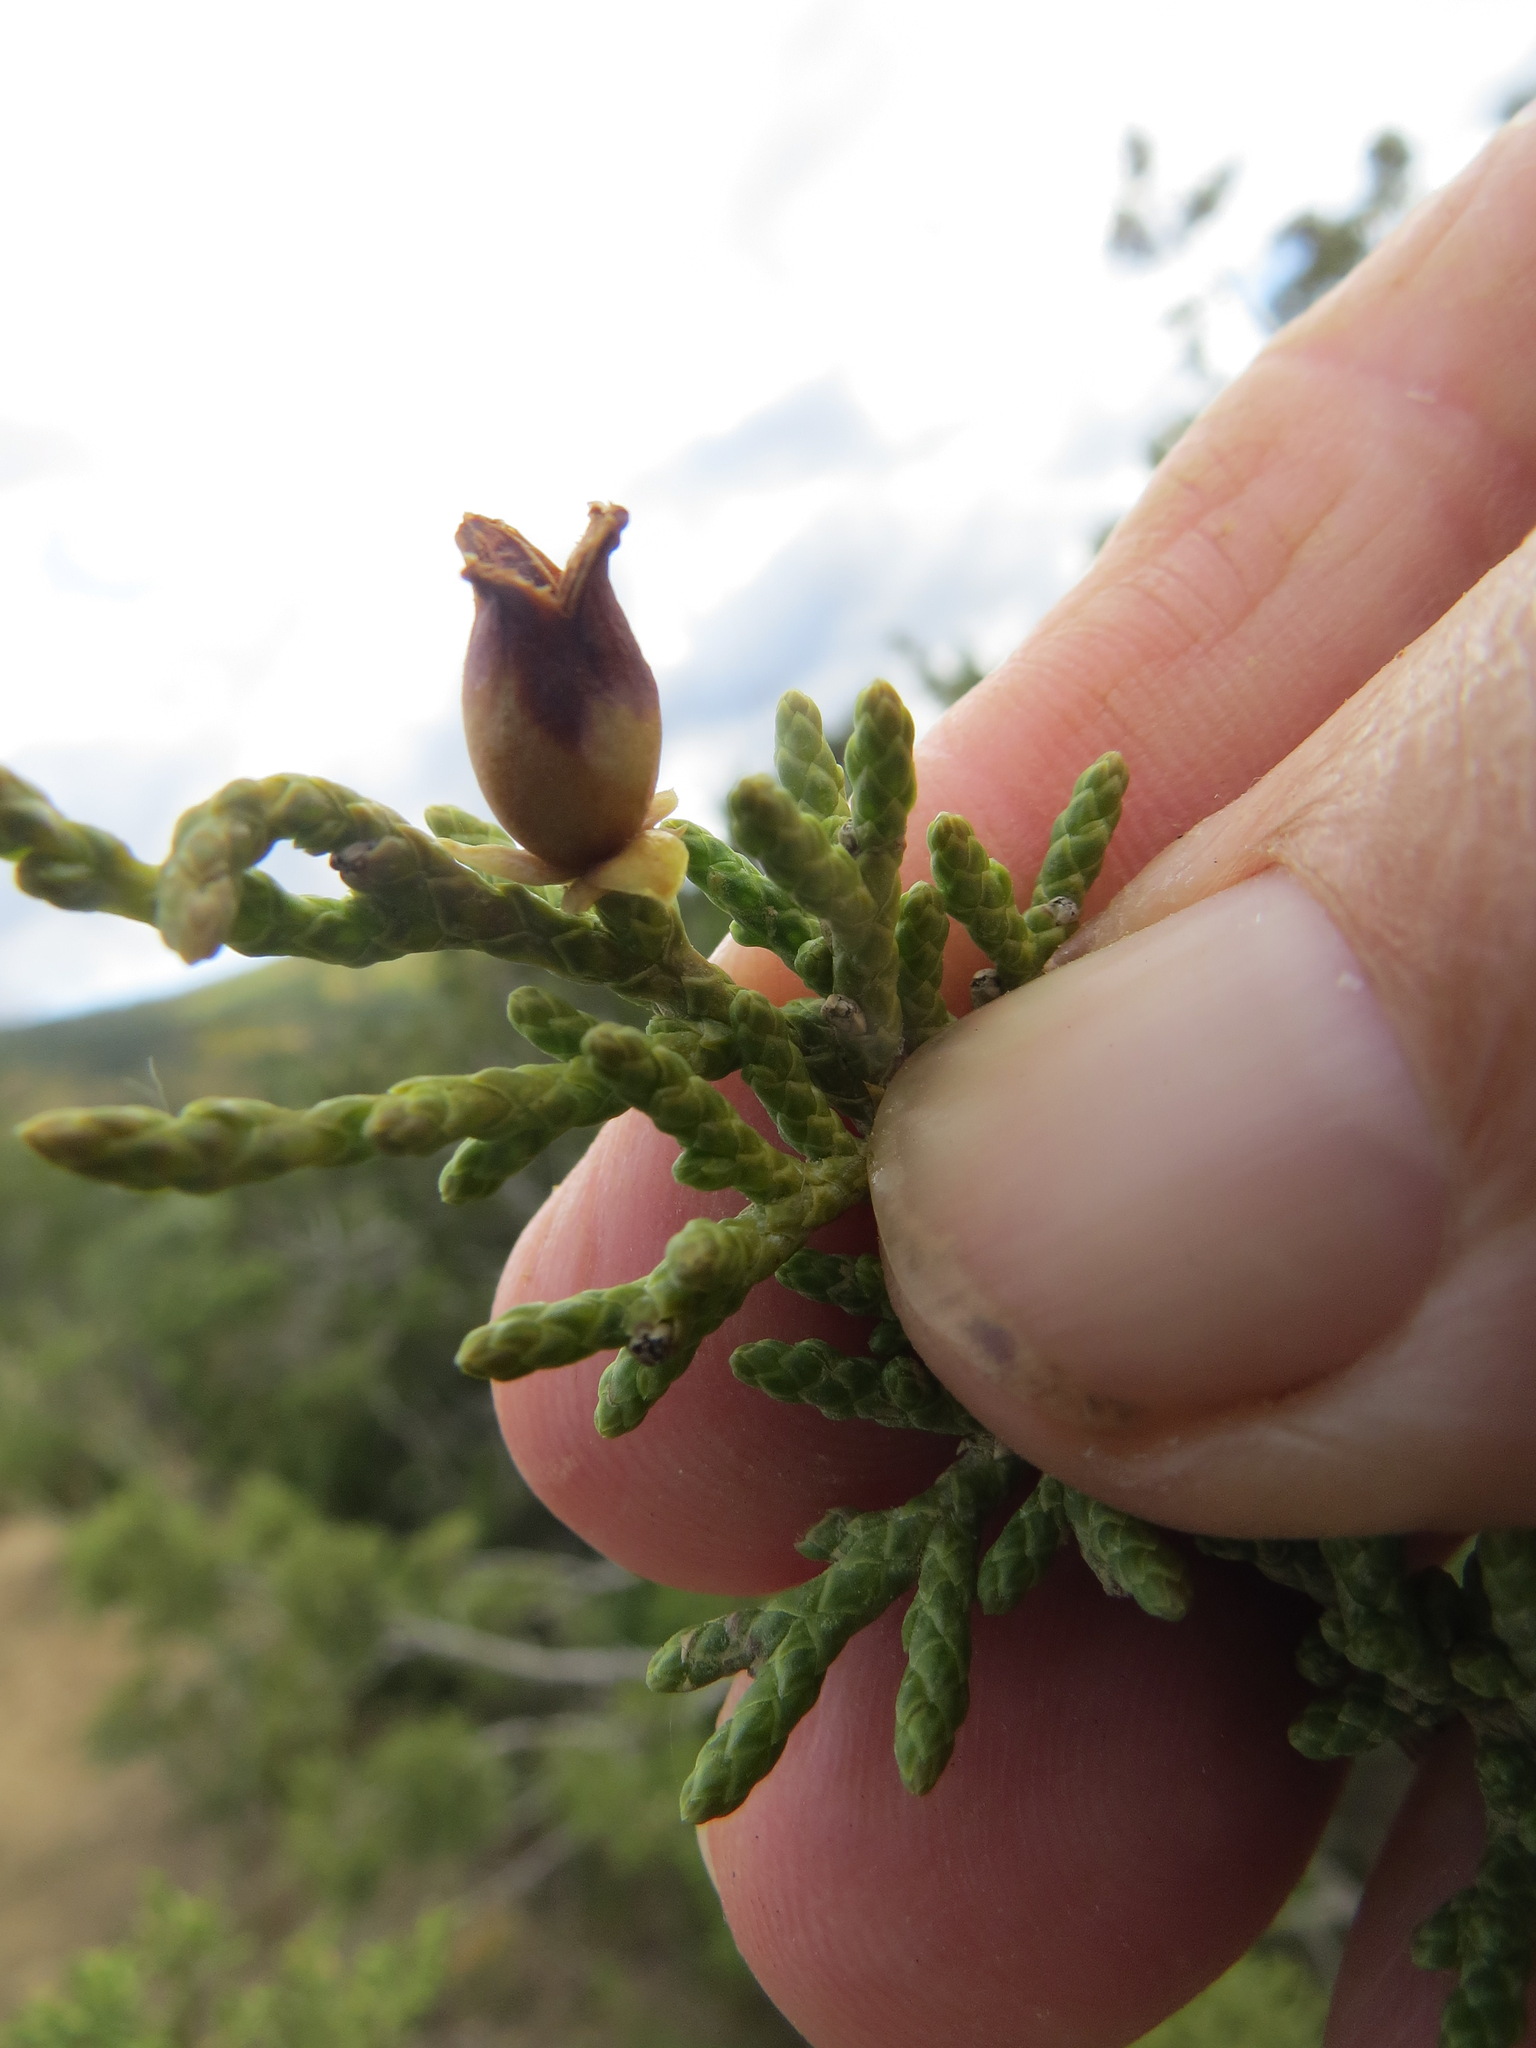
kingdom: Animalia
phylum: Arthropoda
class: Insecta
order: Diptera
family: Cecidomyiidae
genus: Walshomyia
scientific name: Walshomyia juniperina
